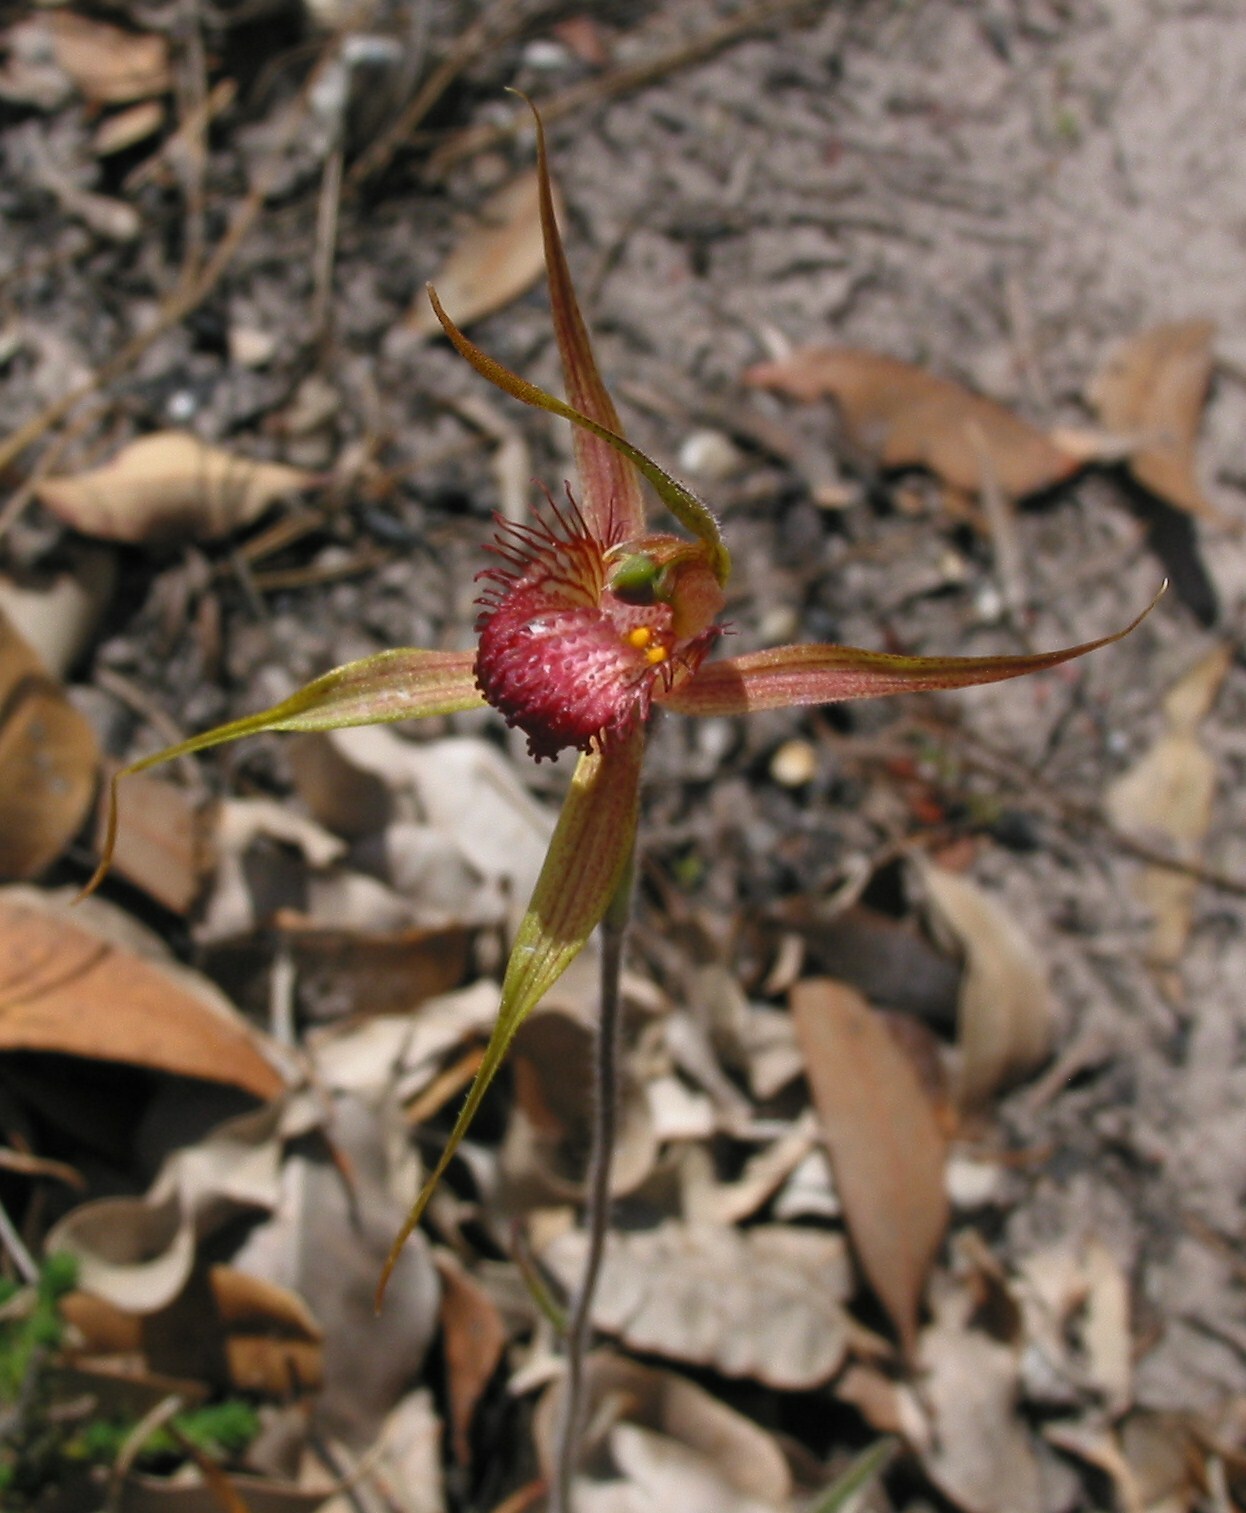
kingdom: Plantae
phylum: Tracheophyta
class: Liliopsida
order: Asparagales
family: Orchidaceae
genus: Caladenia
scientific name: Caladenia pectinata
